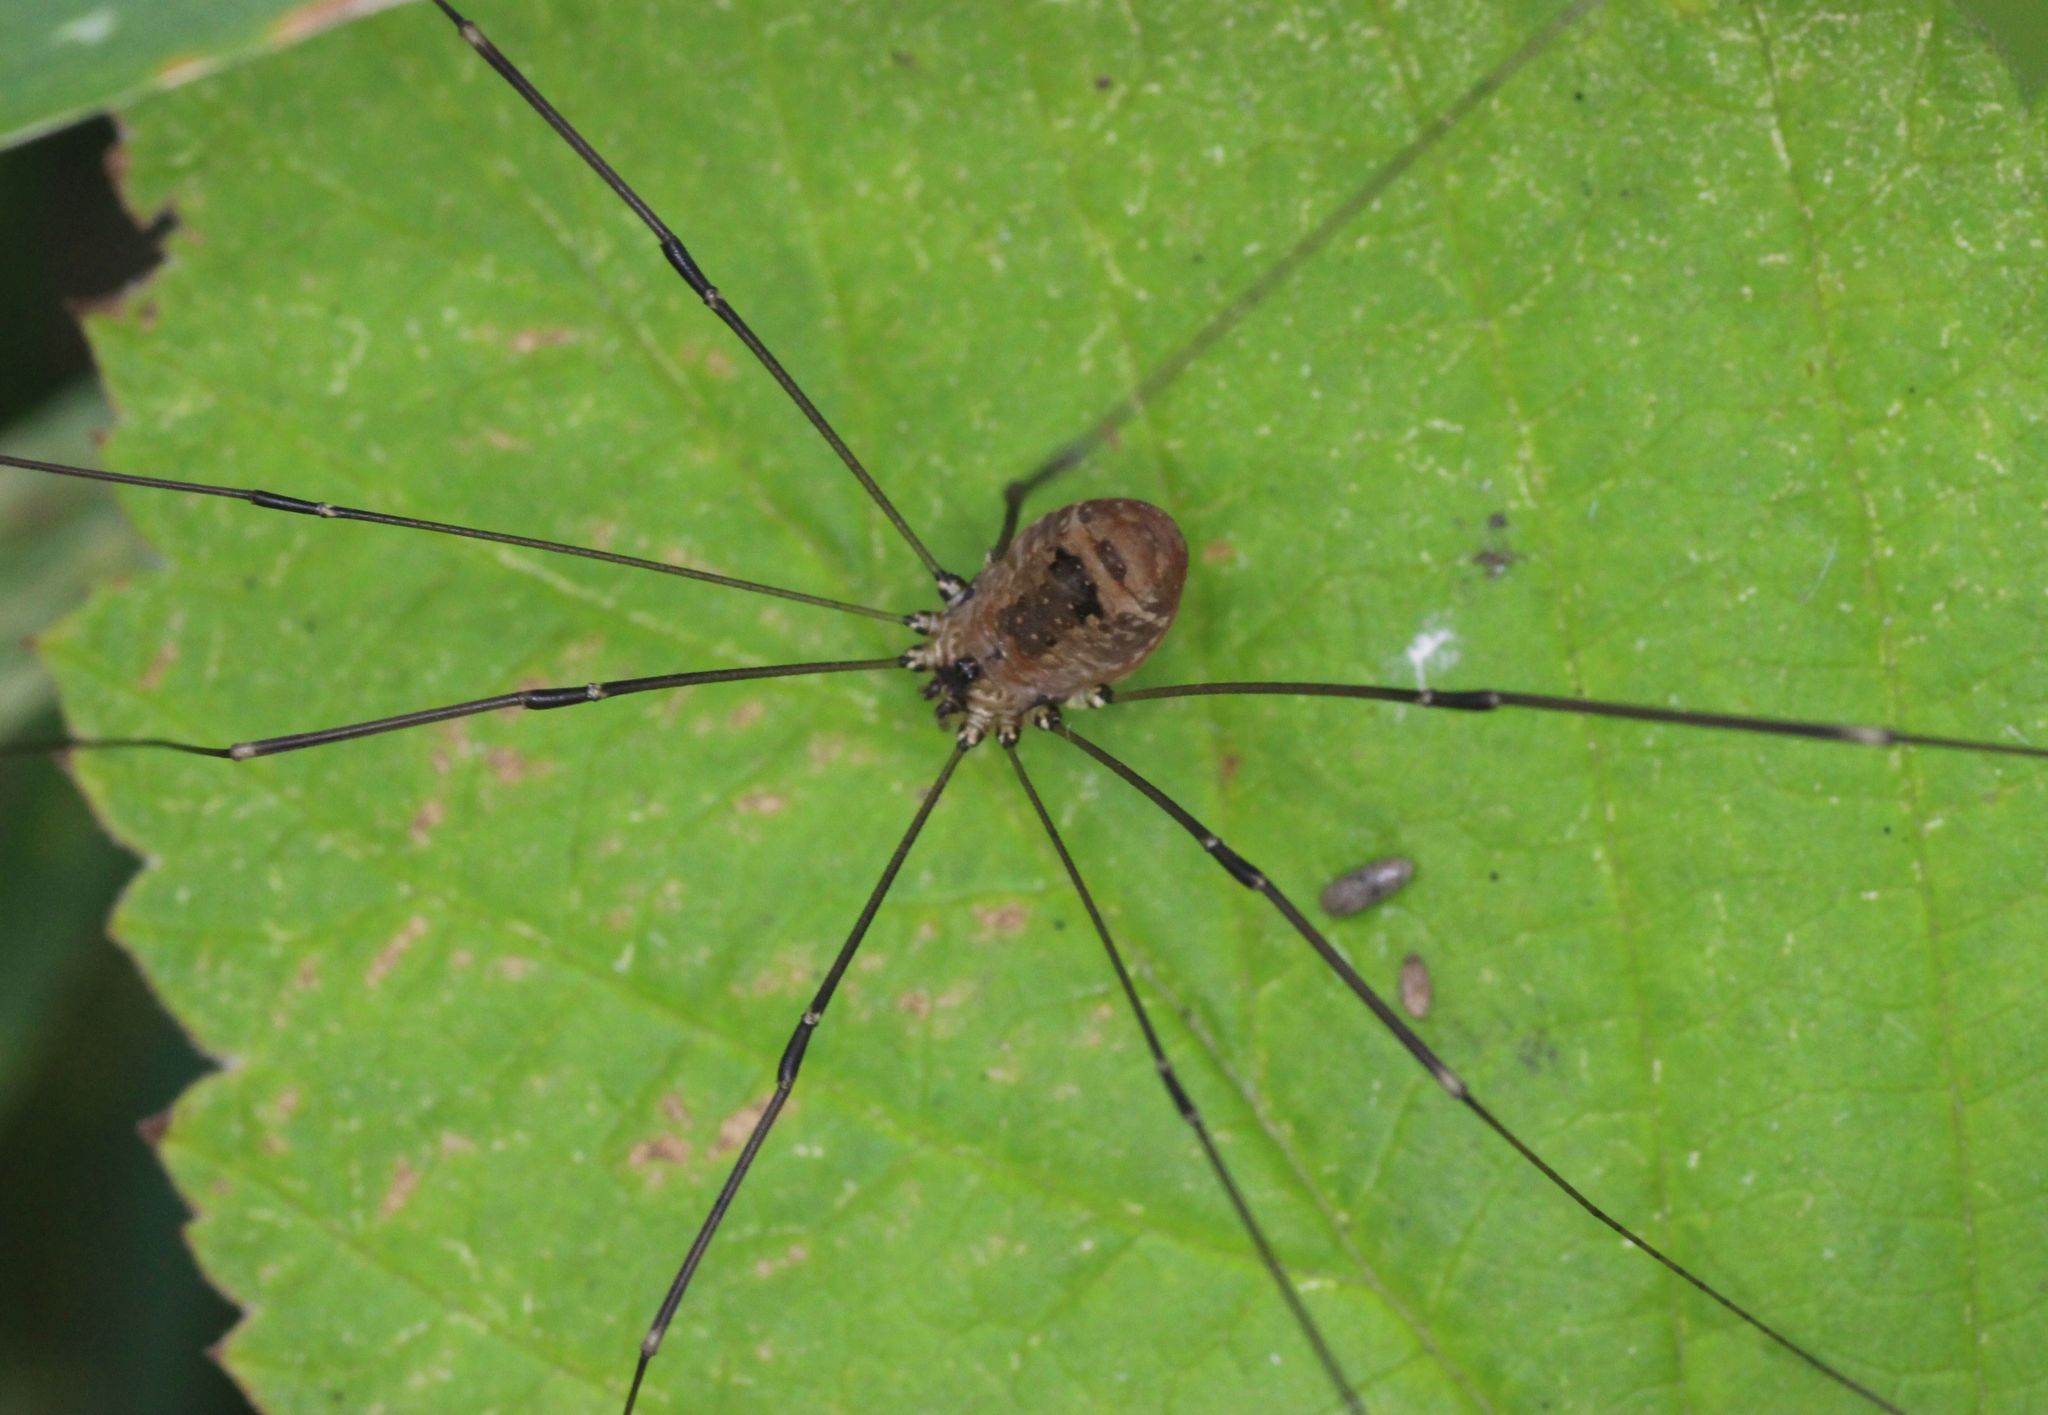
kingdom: Animalia
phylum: Arthropoda
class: Arachnida
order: Opiliones
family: Sclerosomatidae
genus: Leiobunum
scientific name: Leiobunum rotundum
